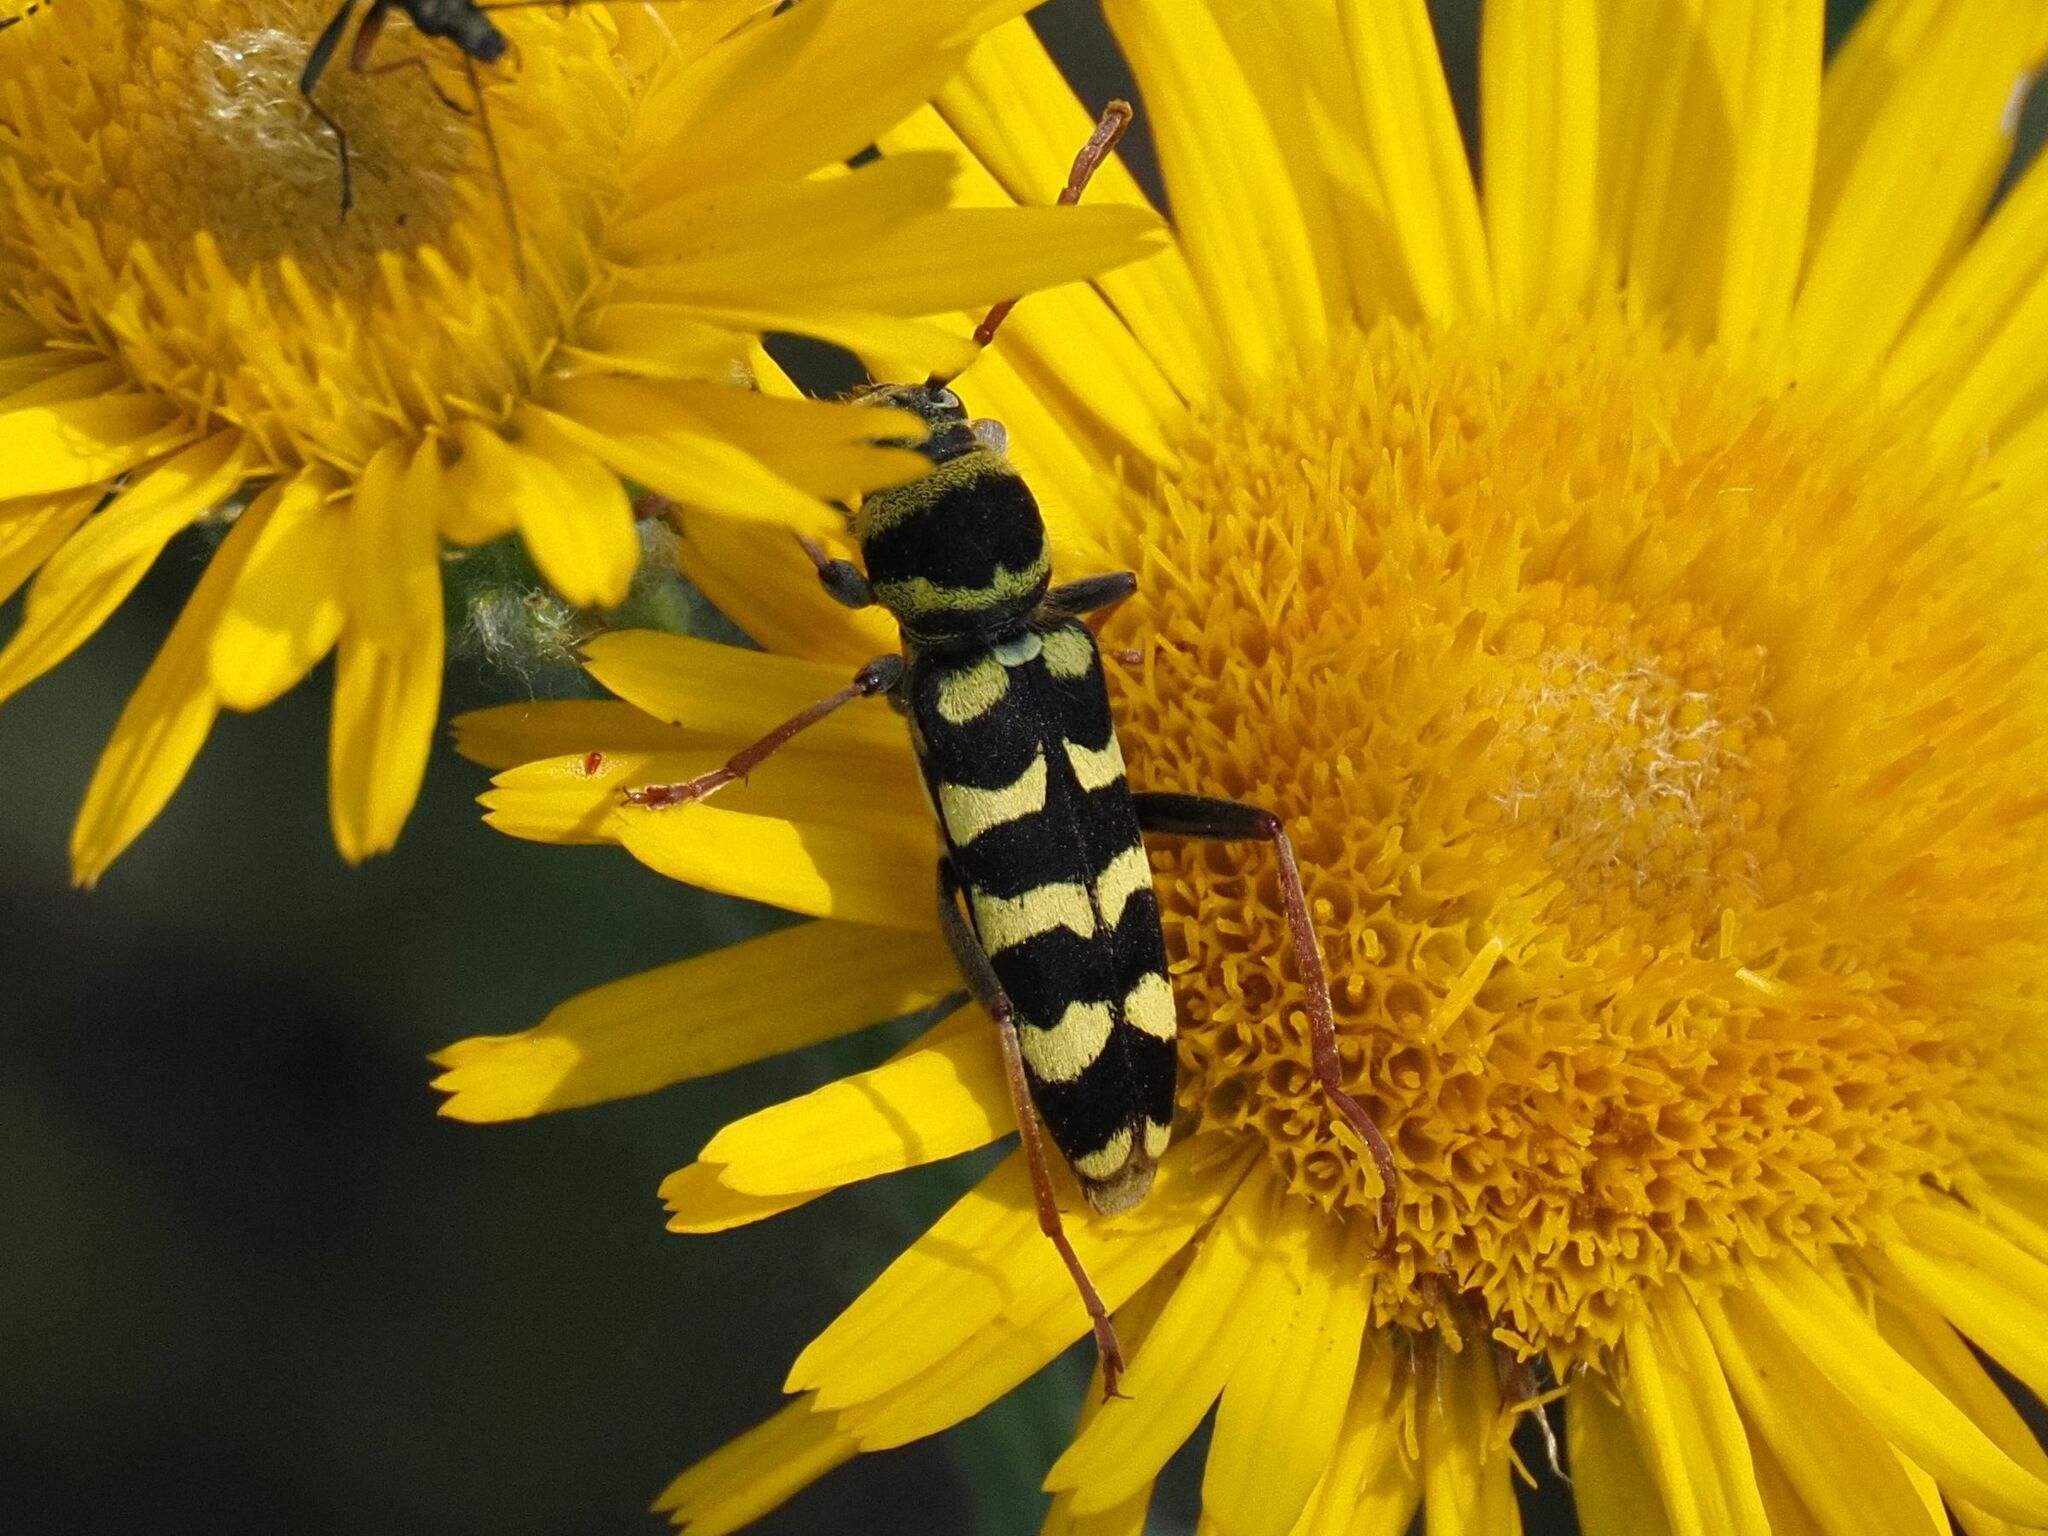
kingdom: Animalia
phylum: Arthropoda
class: Insecta
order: Coleoptera
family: Cerambycidae
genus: Plagionotus
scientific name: Plagionotus floralis
